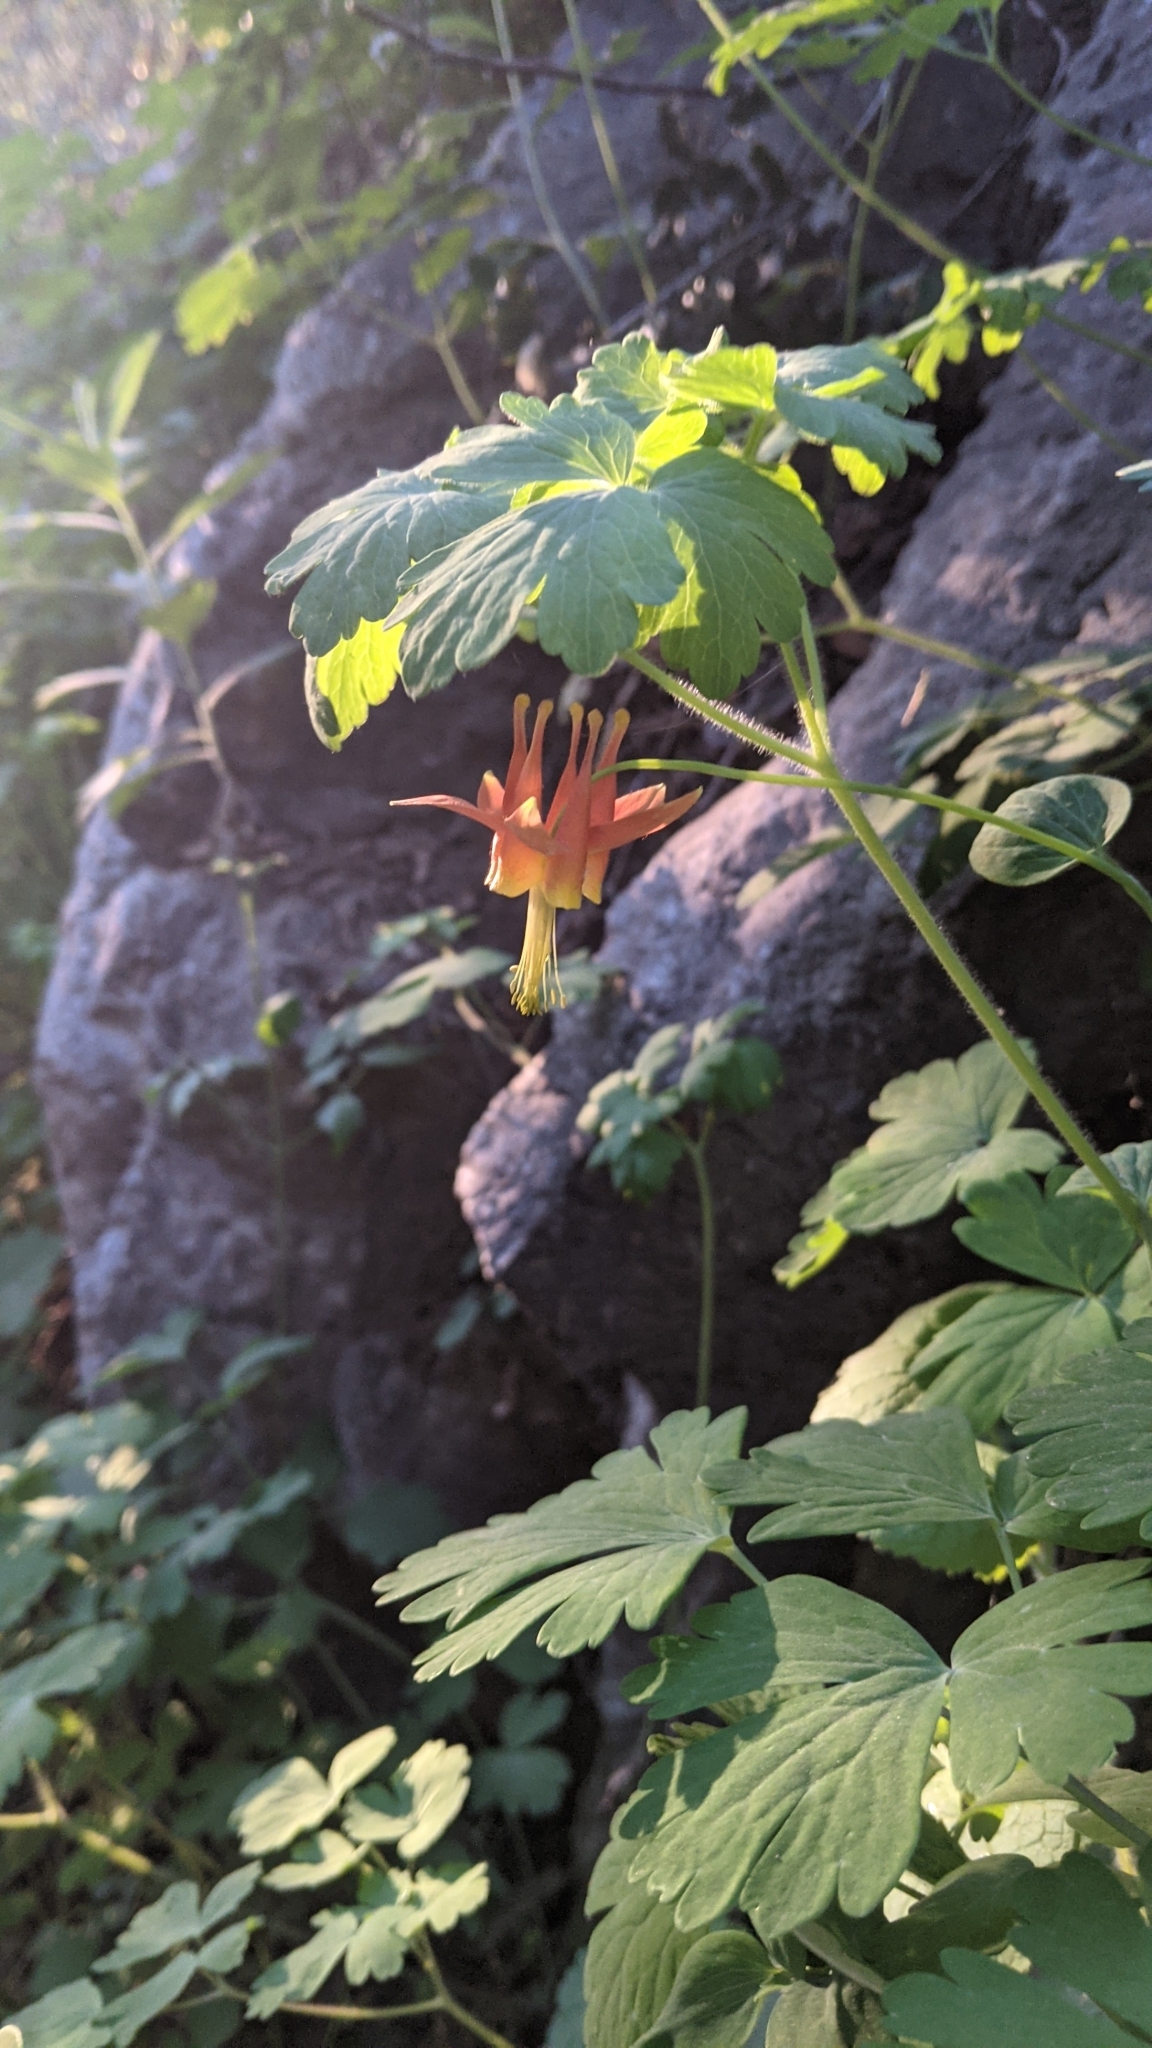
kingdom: Plantae
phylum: Tracheophyta
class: Magnoliopsida
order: Ranunculales
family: Ranunculaceae
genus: Aquilegia
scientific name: Aquilegia formosa
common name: Sitka columbine
